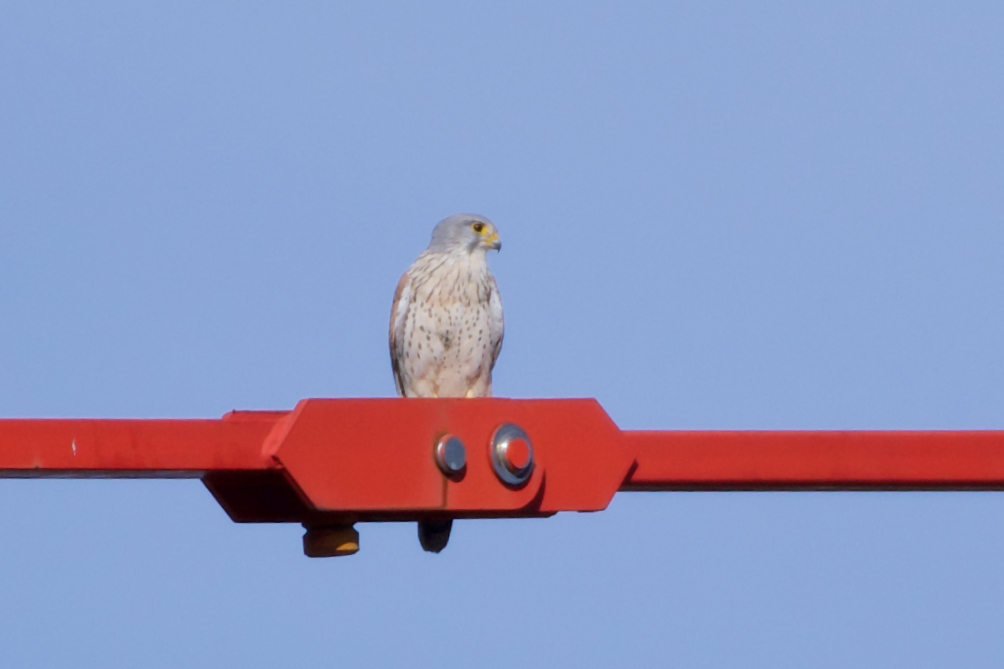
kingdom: Animalia
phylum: Chordata
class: Aves
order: Falconiformes
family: Falconidae
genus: Falco
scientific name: Falco tinnunculus
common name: Common kestrel
